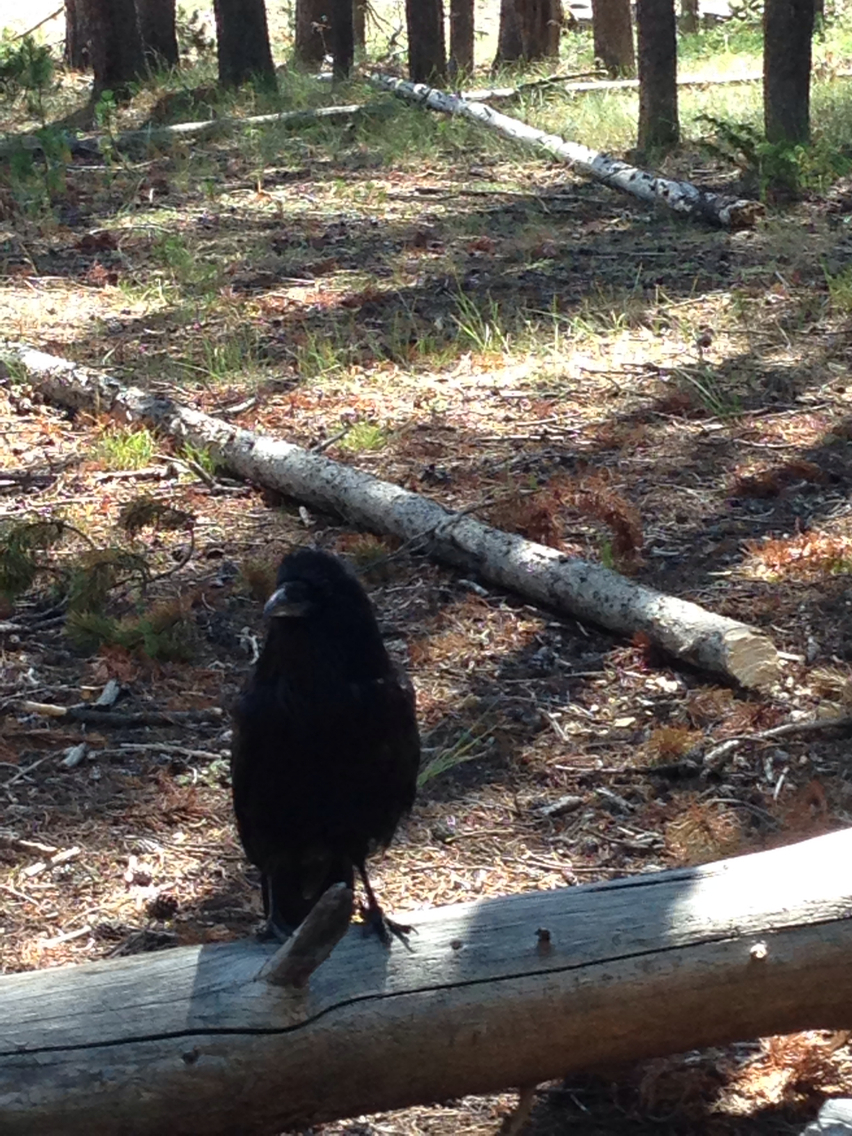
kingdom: Animalia
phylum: Chordata
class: Aves
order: Passeriformes
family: Corvidae
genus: Corvus
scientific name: Corvus corax
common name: Common raven
